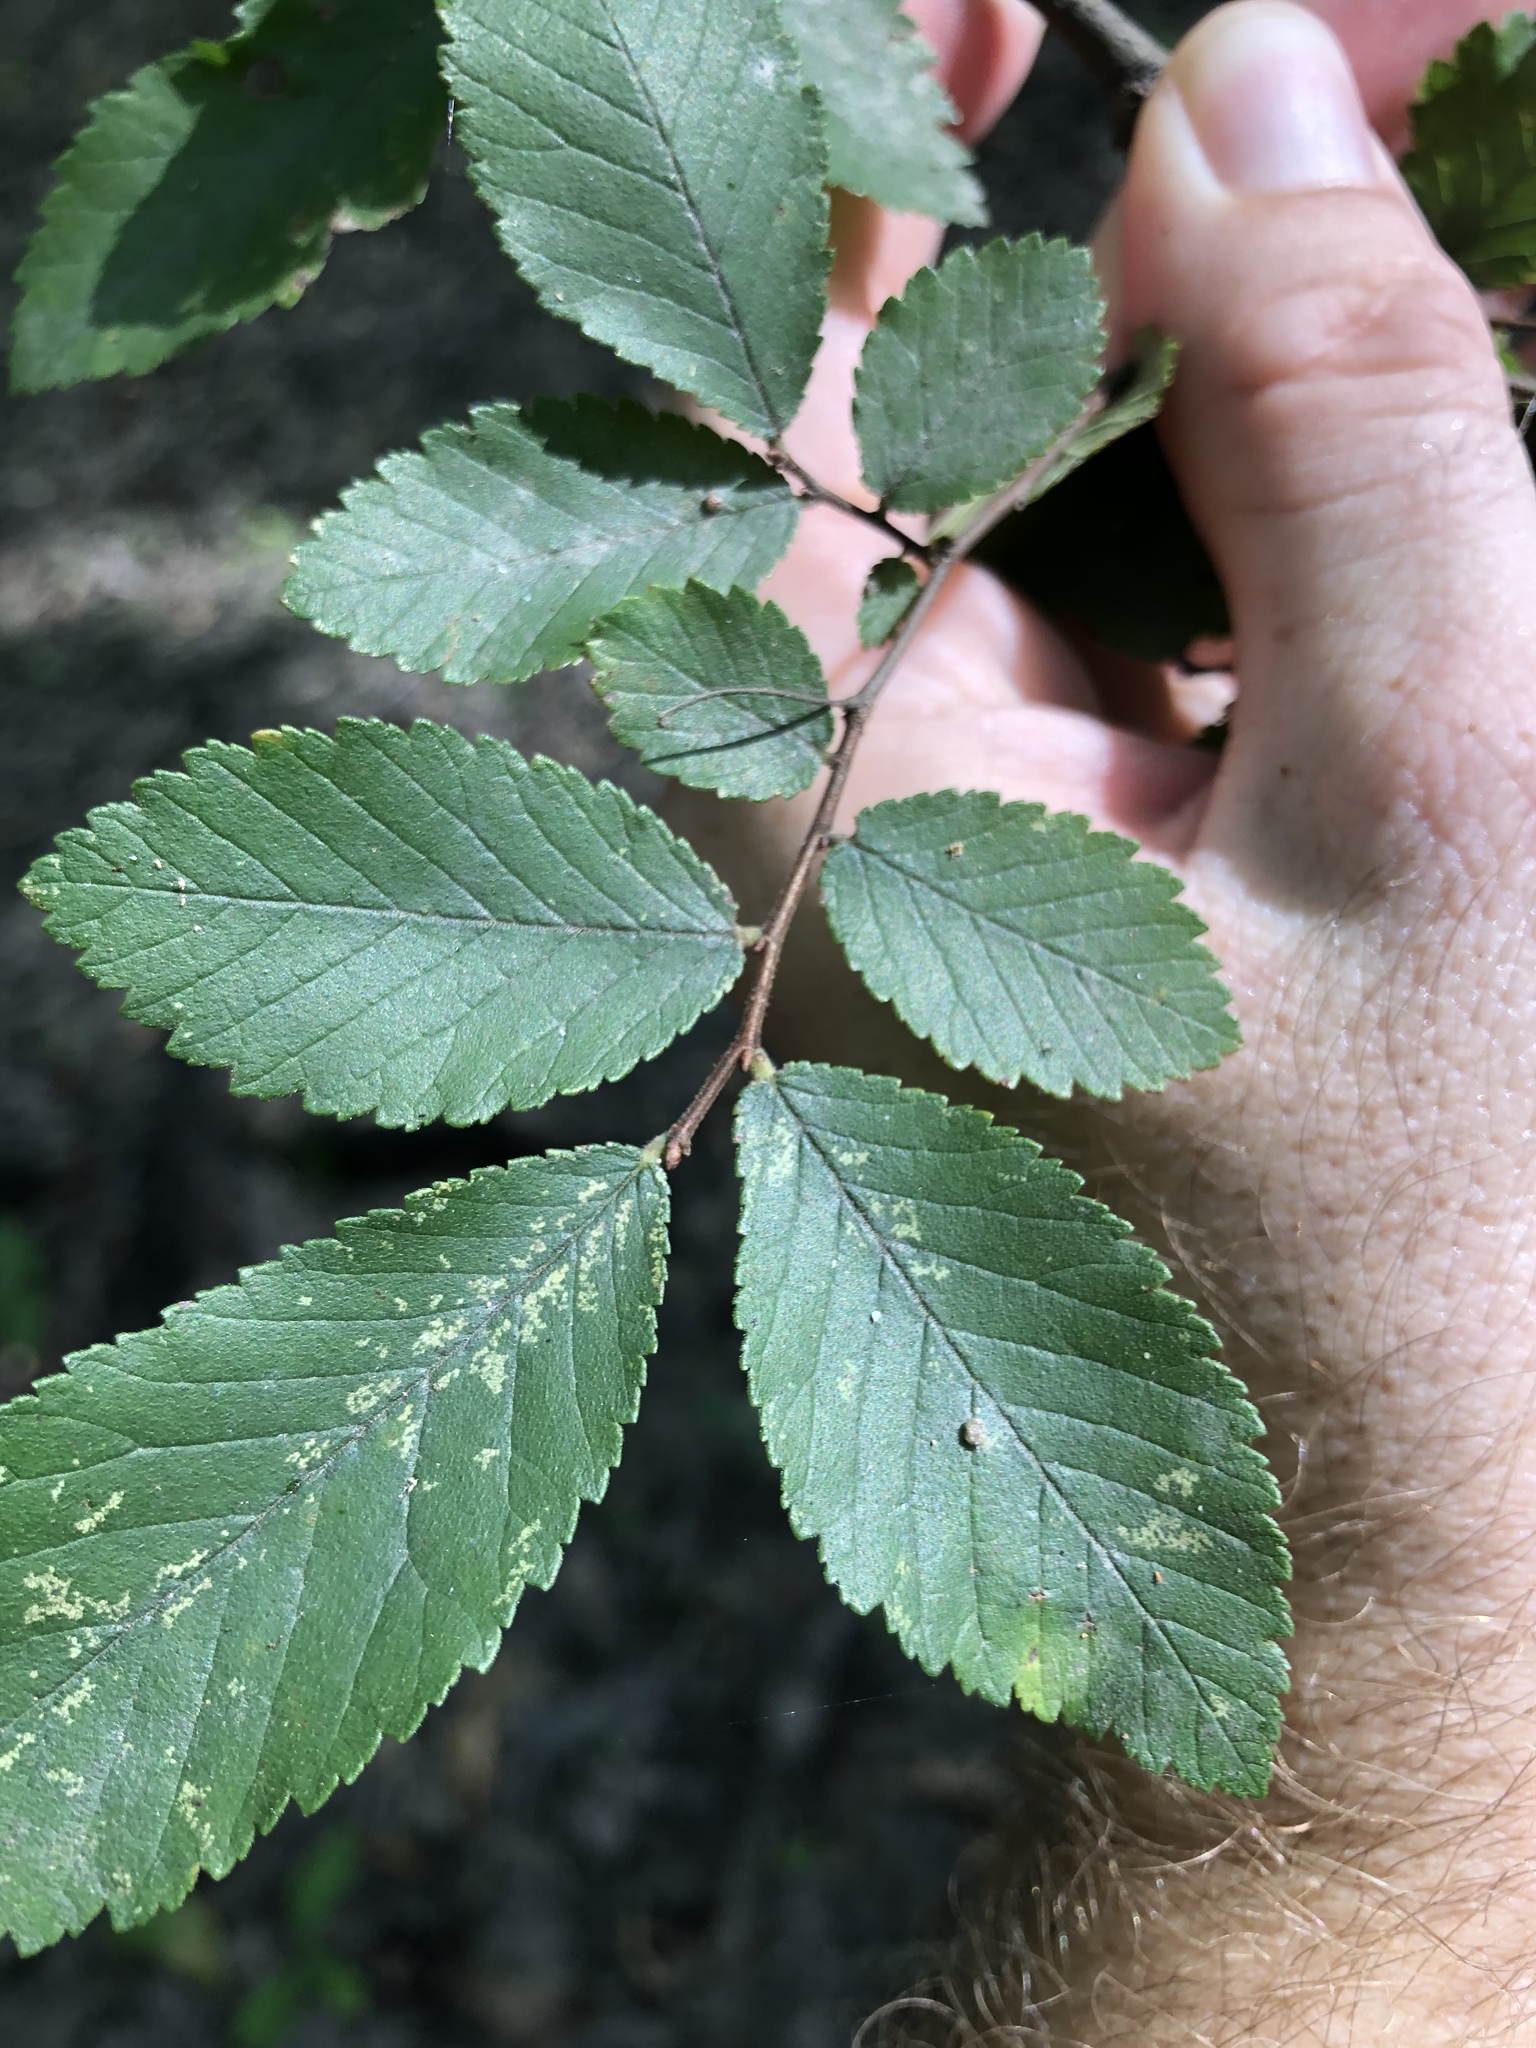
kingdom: Plantae
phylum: Tracheophyta
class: Magnoliopsida
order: Rosales
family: Ulmaceae
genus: Ulmus
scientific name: Ulmus crassifolia
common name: Basket elm
